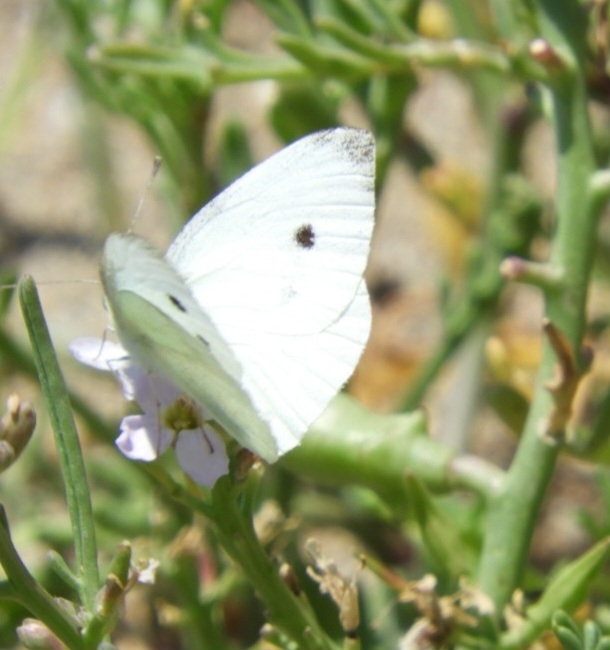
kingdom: Animalia
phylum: Arthropoda
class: Insecta
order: Lepidoptera
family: Pieridae
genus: Pieris
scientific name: Pieris rapae
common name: Small white
